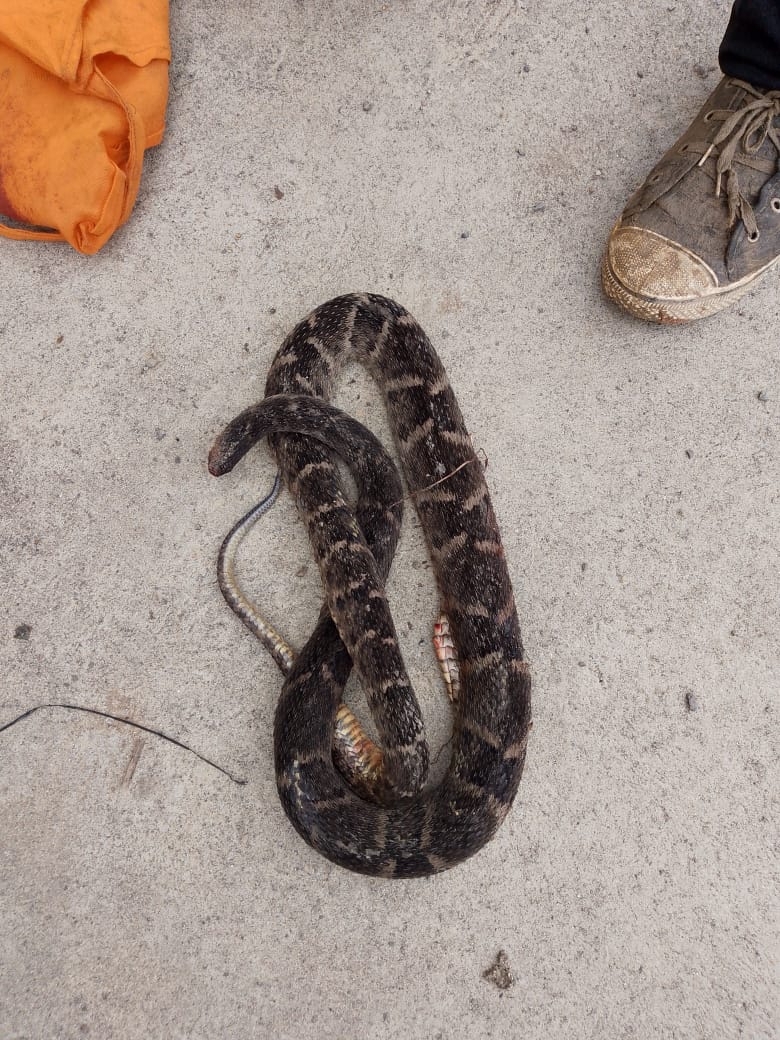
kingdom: Animalia
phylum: Chordata
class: Squamata
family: Viperidae
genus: Bothrops
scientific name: Bothrops atrox
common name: Common lancehead
